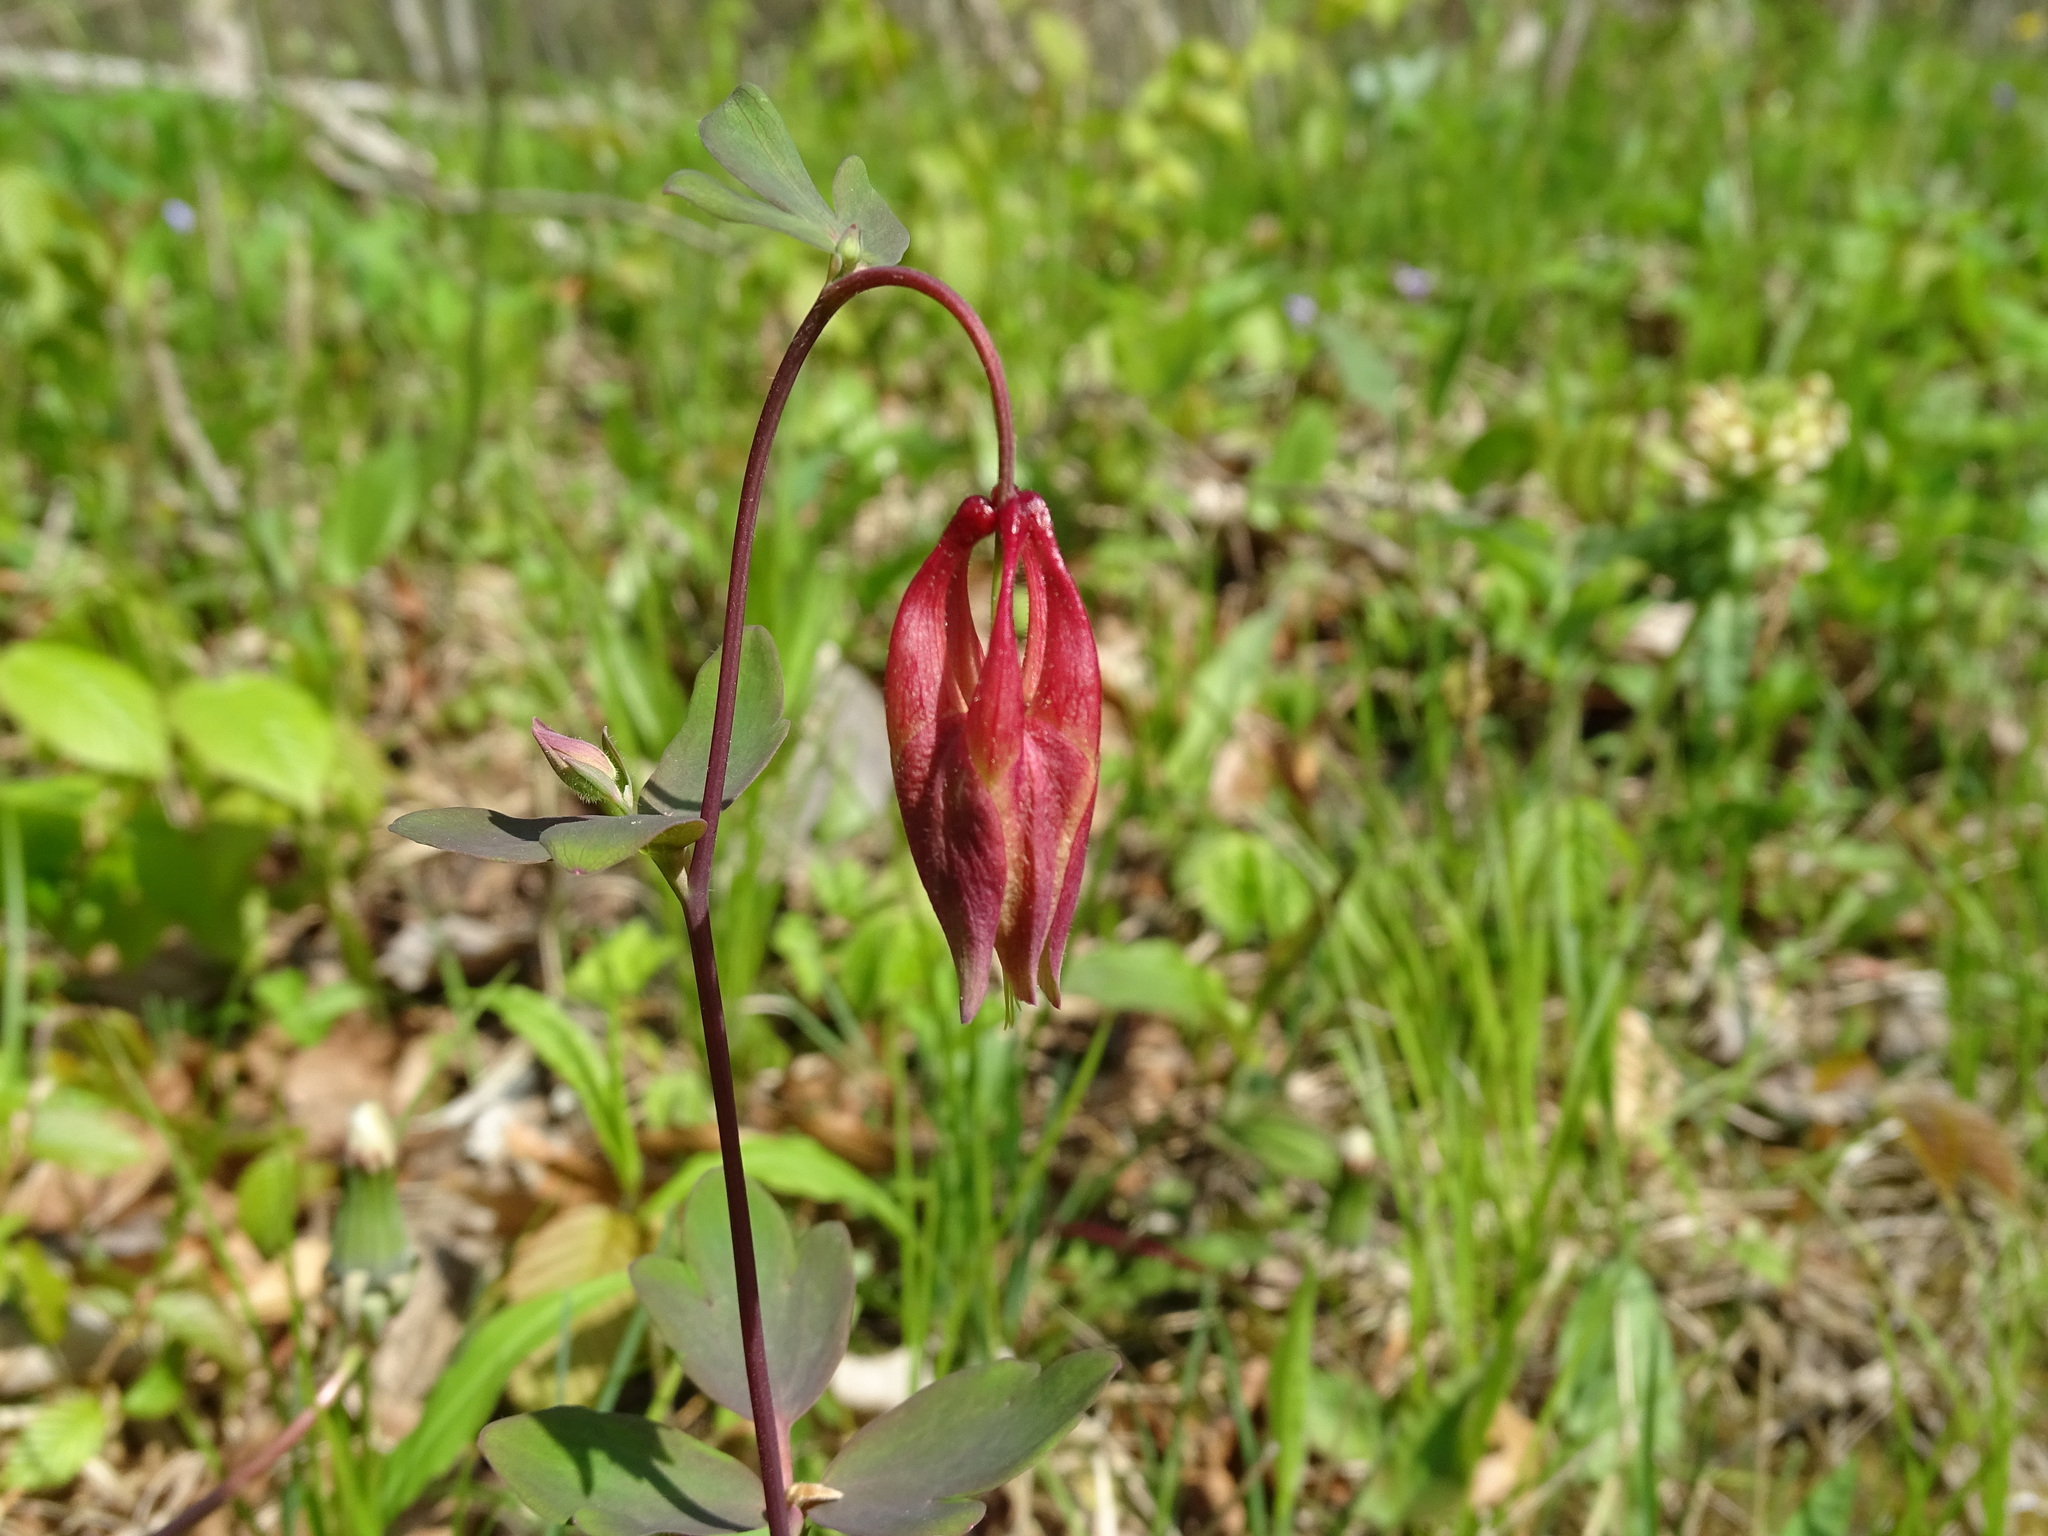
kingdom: Plantae
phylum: Tracheophyta
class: Magnoliopsida
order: Ranunculales
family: Ranunculaceae
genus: Aquilegia
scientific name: Aquilegia canadensis
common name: American columbine
